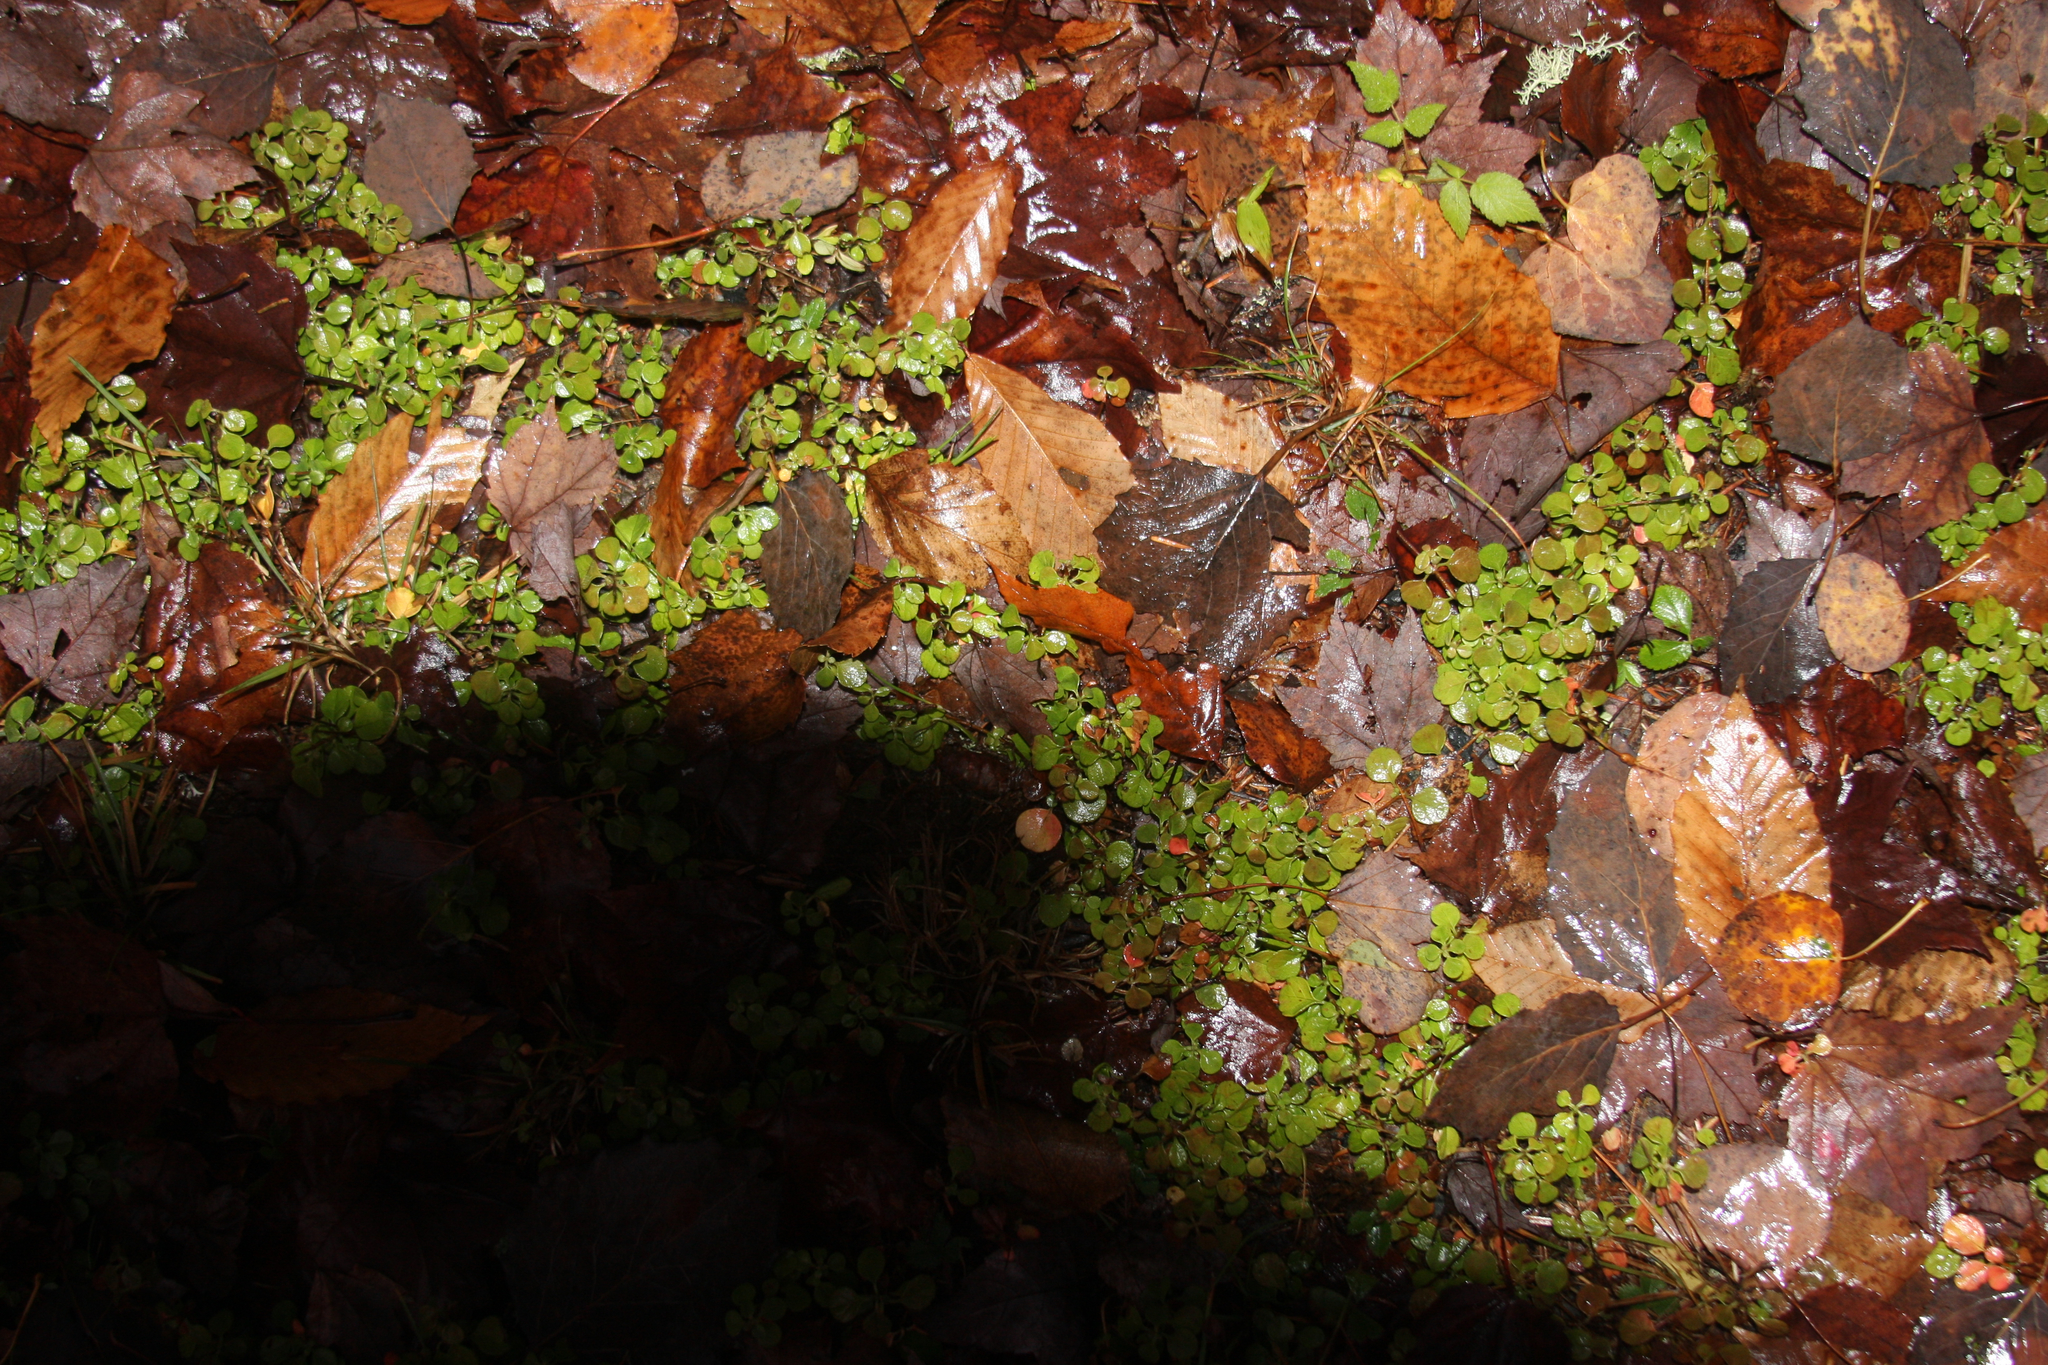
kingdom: Plantae
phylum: Tracheophyta
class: Magnoliopsida
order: Dipsacales
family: Caprifoliaceae
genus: Linnaea
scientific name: Linnaea borealis
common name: Twinflower
